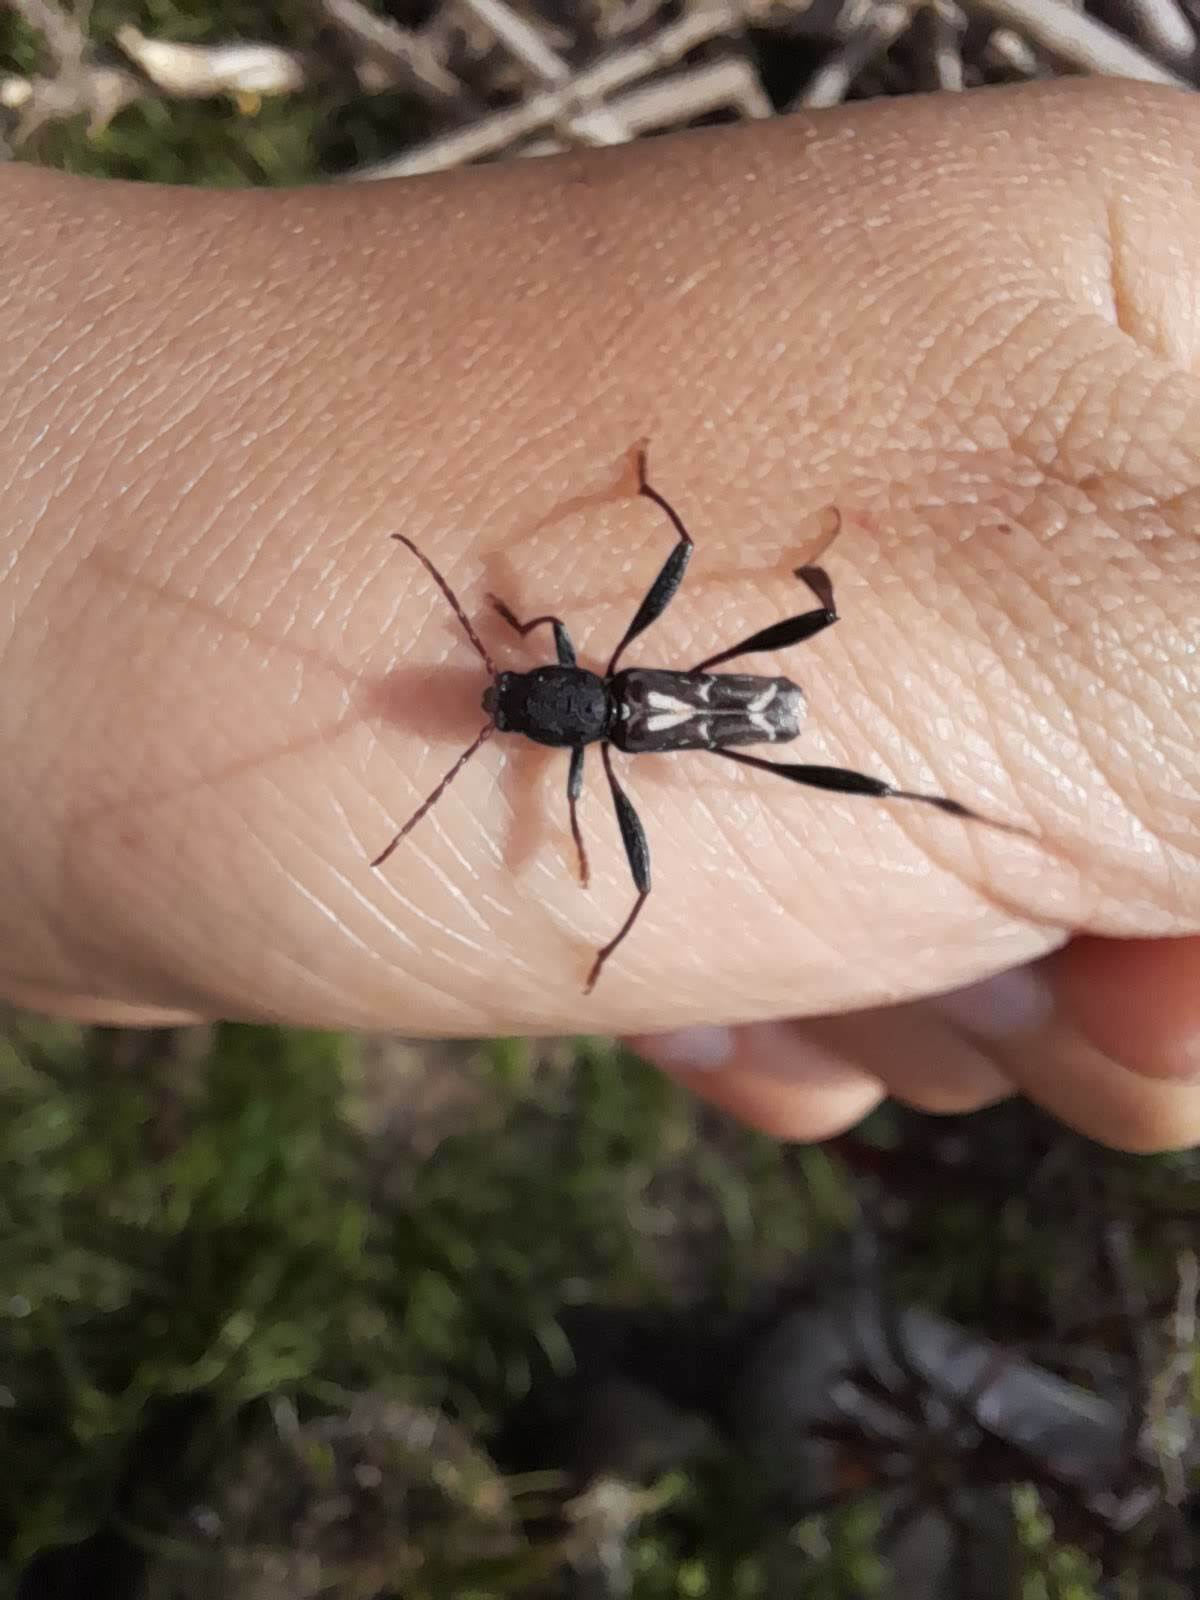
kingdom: Animalia
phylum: Arthropoda
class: Insecta
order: Coleoptera
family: Cerambycidae
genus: Neoclytus
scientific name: Neoclytus ypsilon
